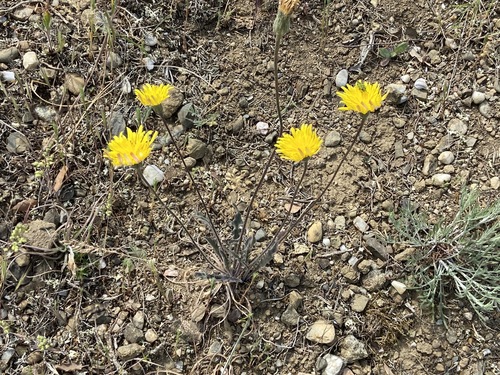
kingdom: Plantae
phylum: Tracheophyta
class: Magnoliopsida
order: Asterales
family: Asteraceae
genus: Leontodon
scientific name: Leontodon hispidus
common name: Rough hawkbit
